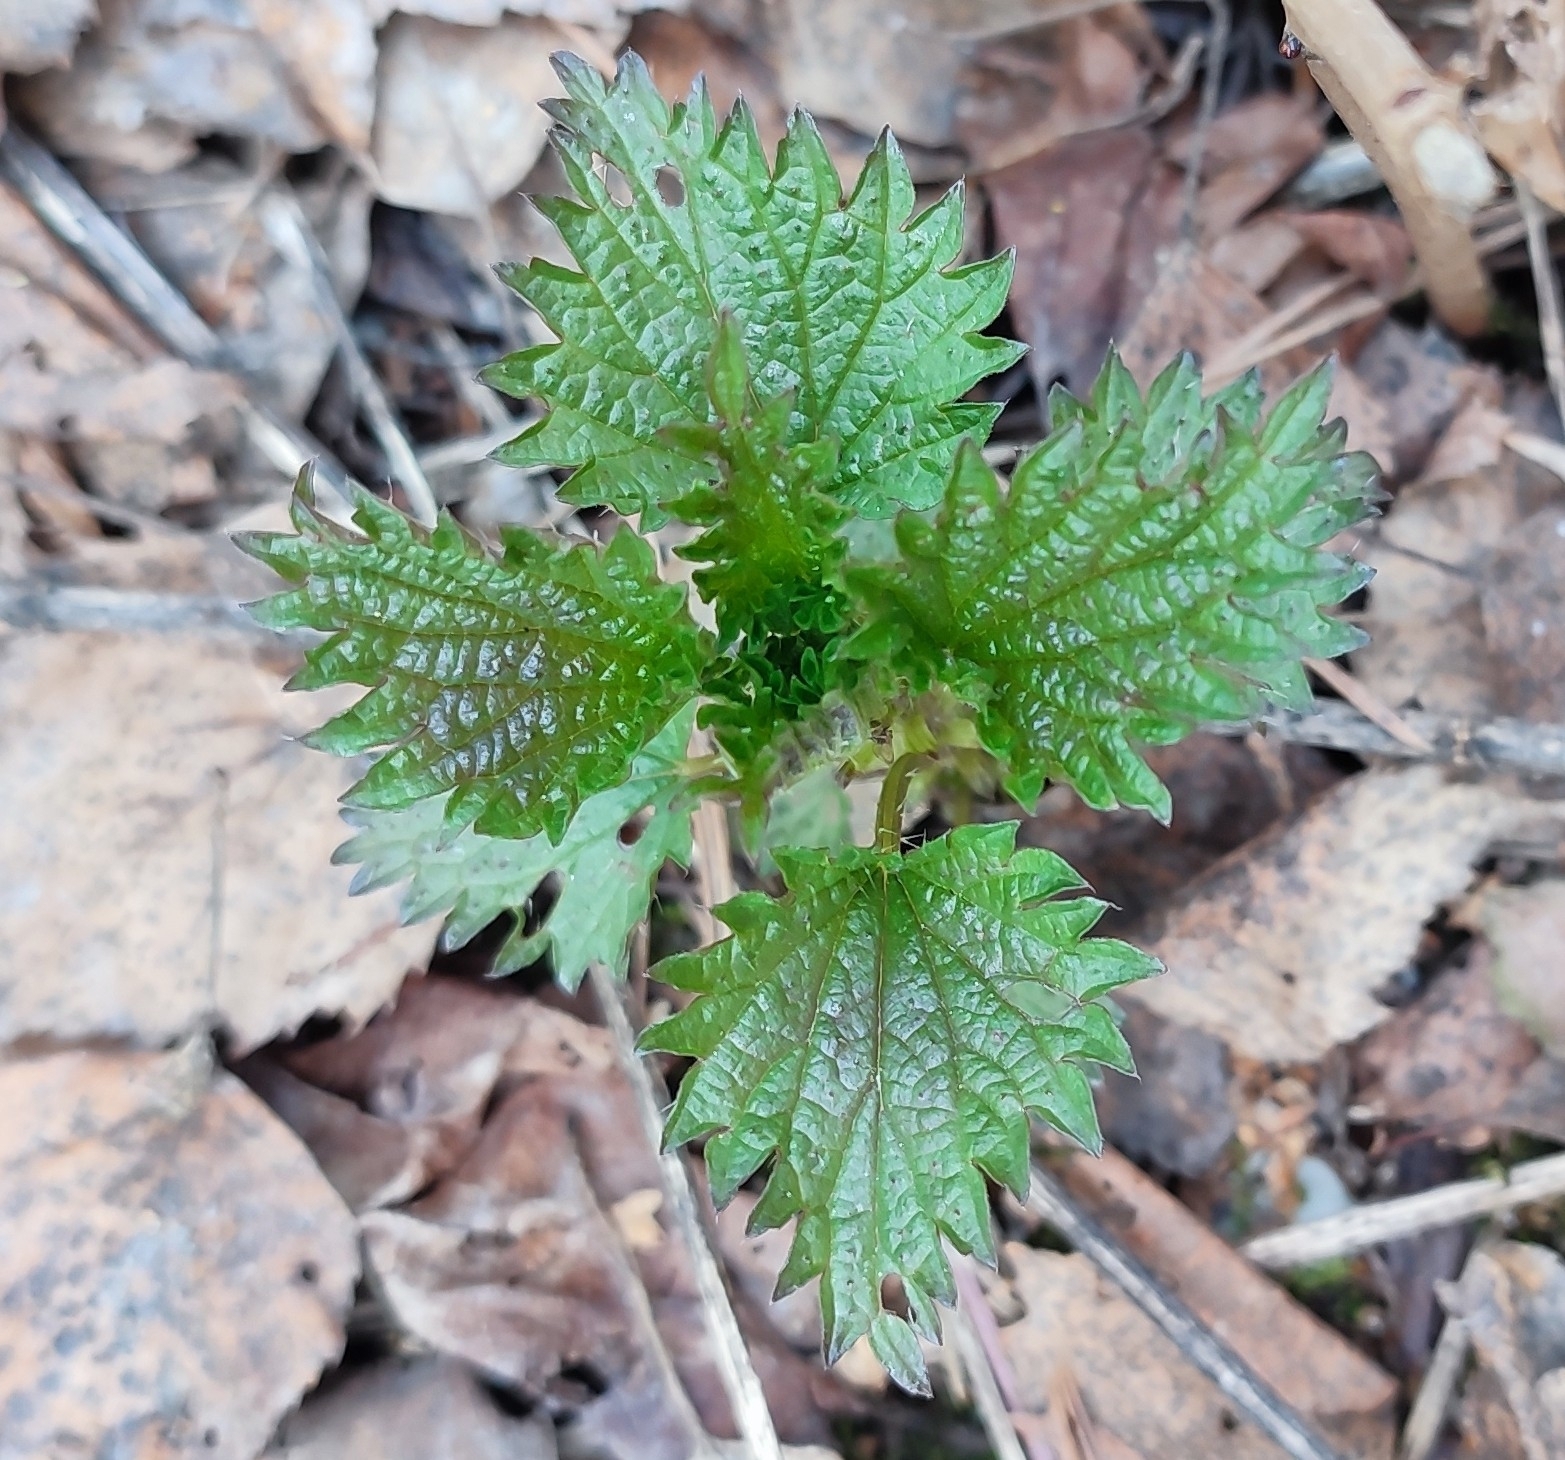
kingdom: Plantae
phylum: Tracheophyta
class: Magnoliopsida
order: Rosales
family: Urticaceae
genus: Urtica
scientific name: Urtica dioica
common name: Common nettle
